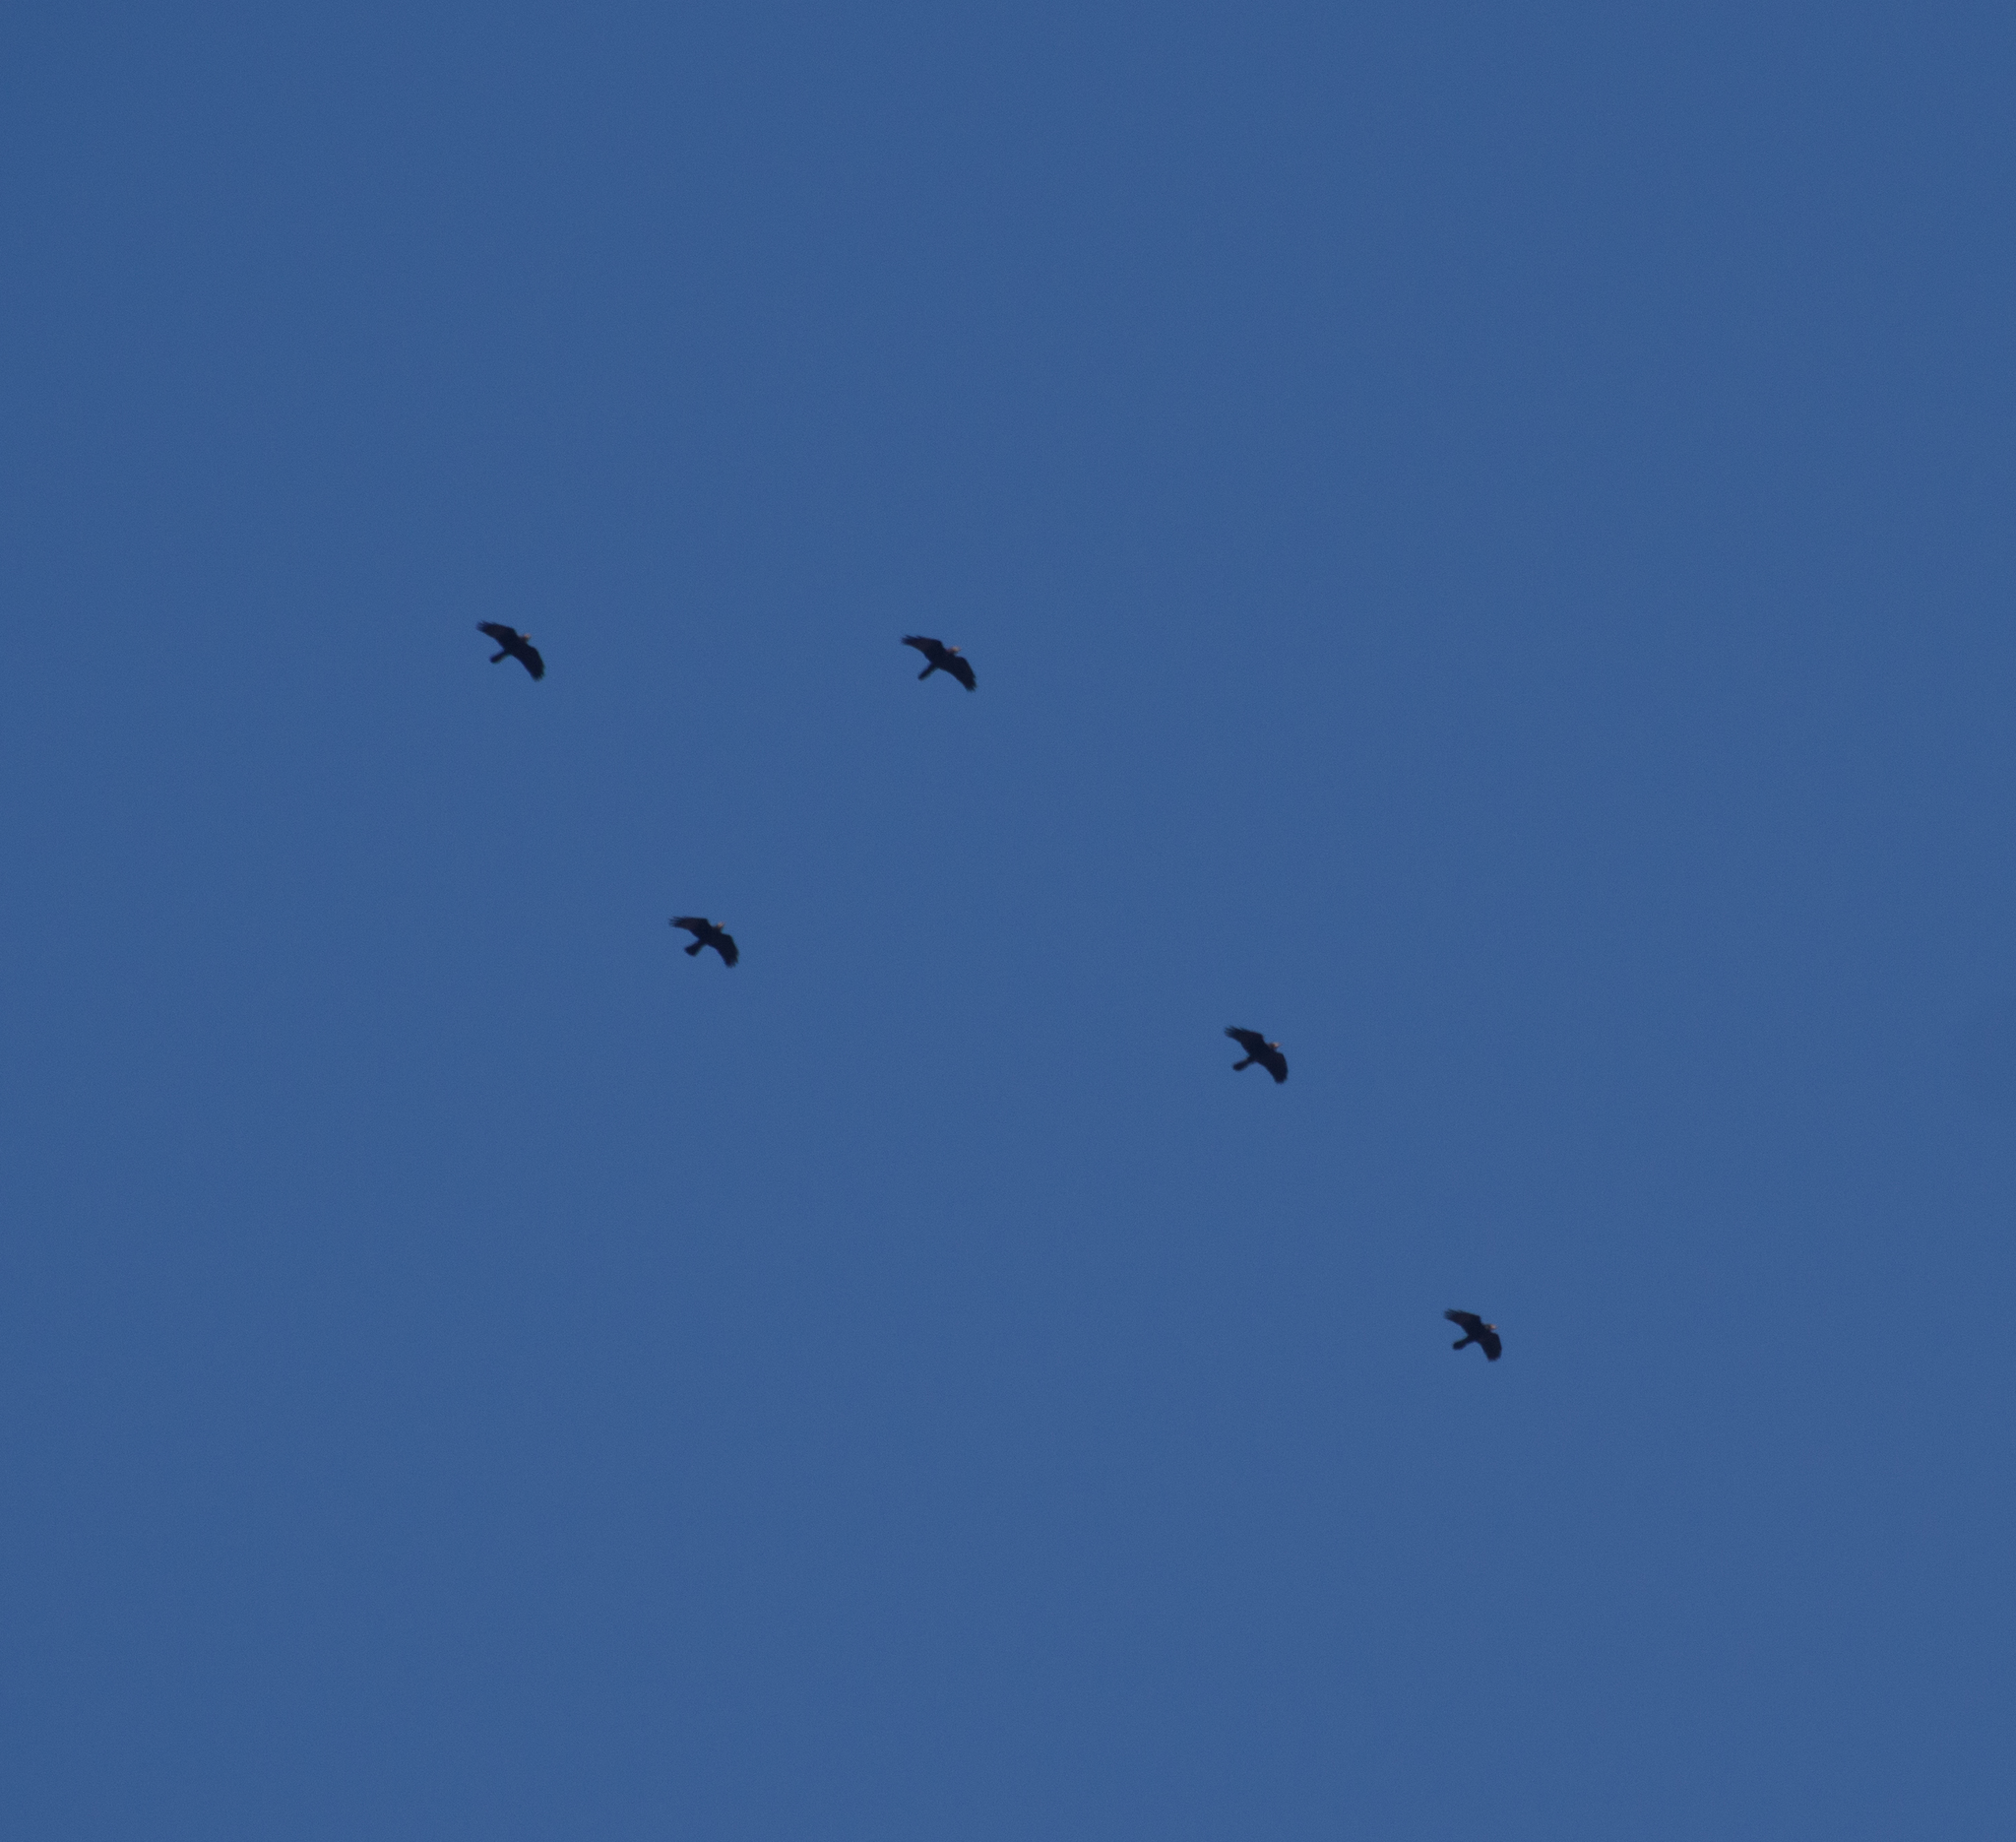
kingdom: Animalia
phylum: Chordata
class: Aves
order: Passeriformes
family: Corvidae
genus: Corvus
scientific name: Corvus frugilegus
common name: Rook
